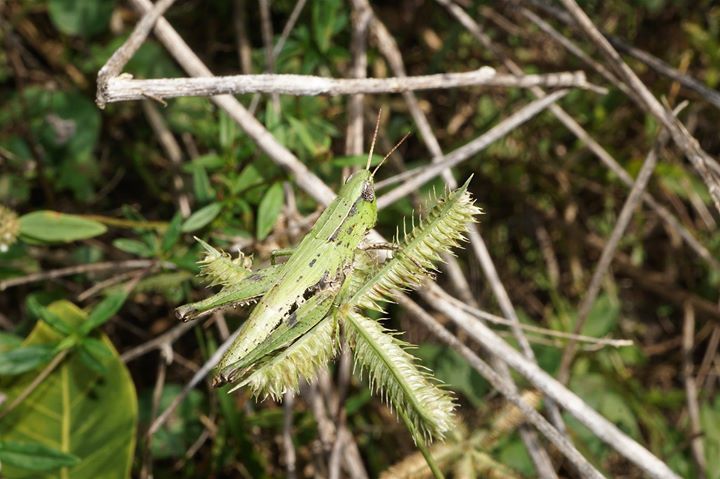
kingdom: Animalia
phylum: Arthropoda
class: Insecta
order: Orthoptera
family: Acrididae
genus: Dichromorpha
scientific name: Dichromorpha viridis
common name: Short-winged green grasshopper
